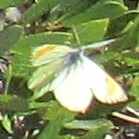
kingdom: Animalia
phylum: Arthropoda
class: Insecta
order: Lepidoptera
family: Pieridae
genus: Anthocharis
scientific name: Anthocharis sara
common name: Sara's orangetip
